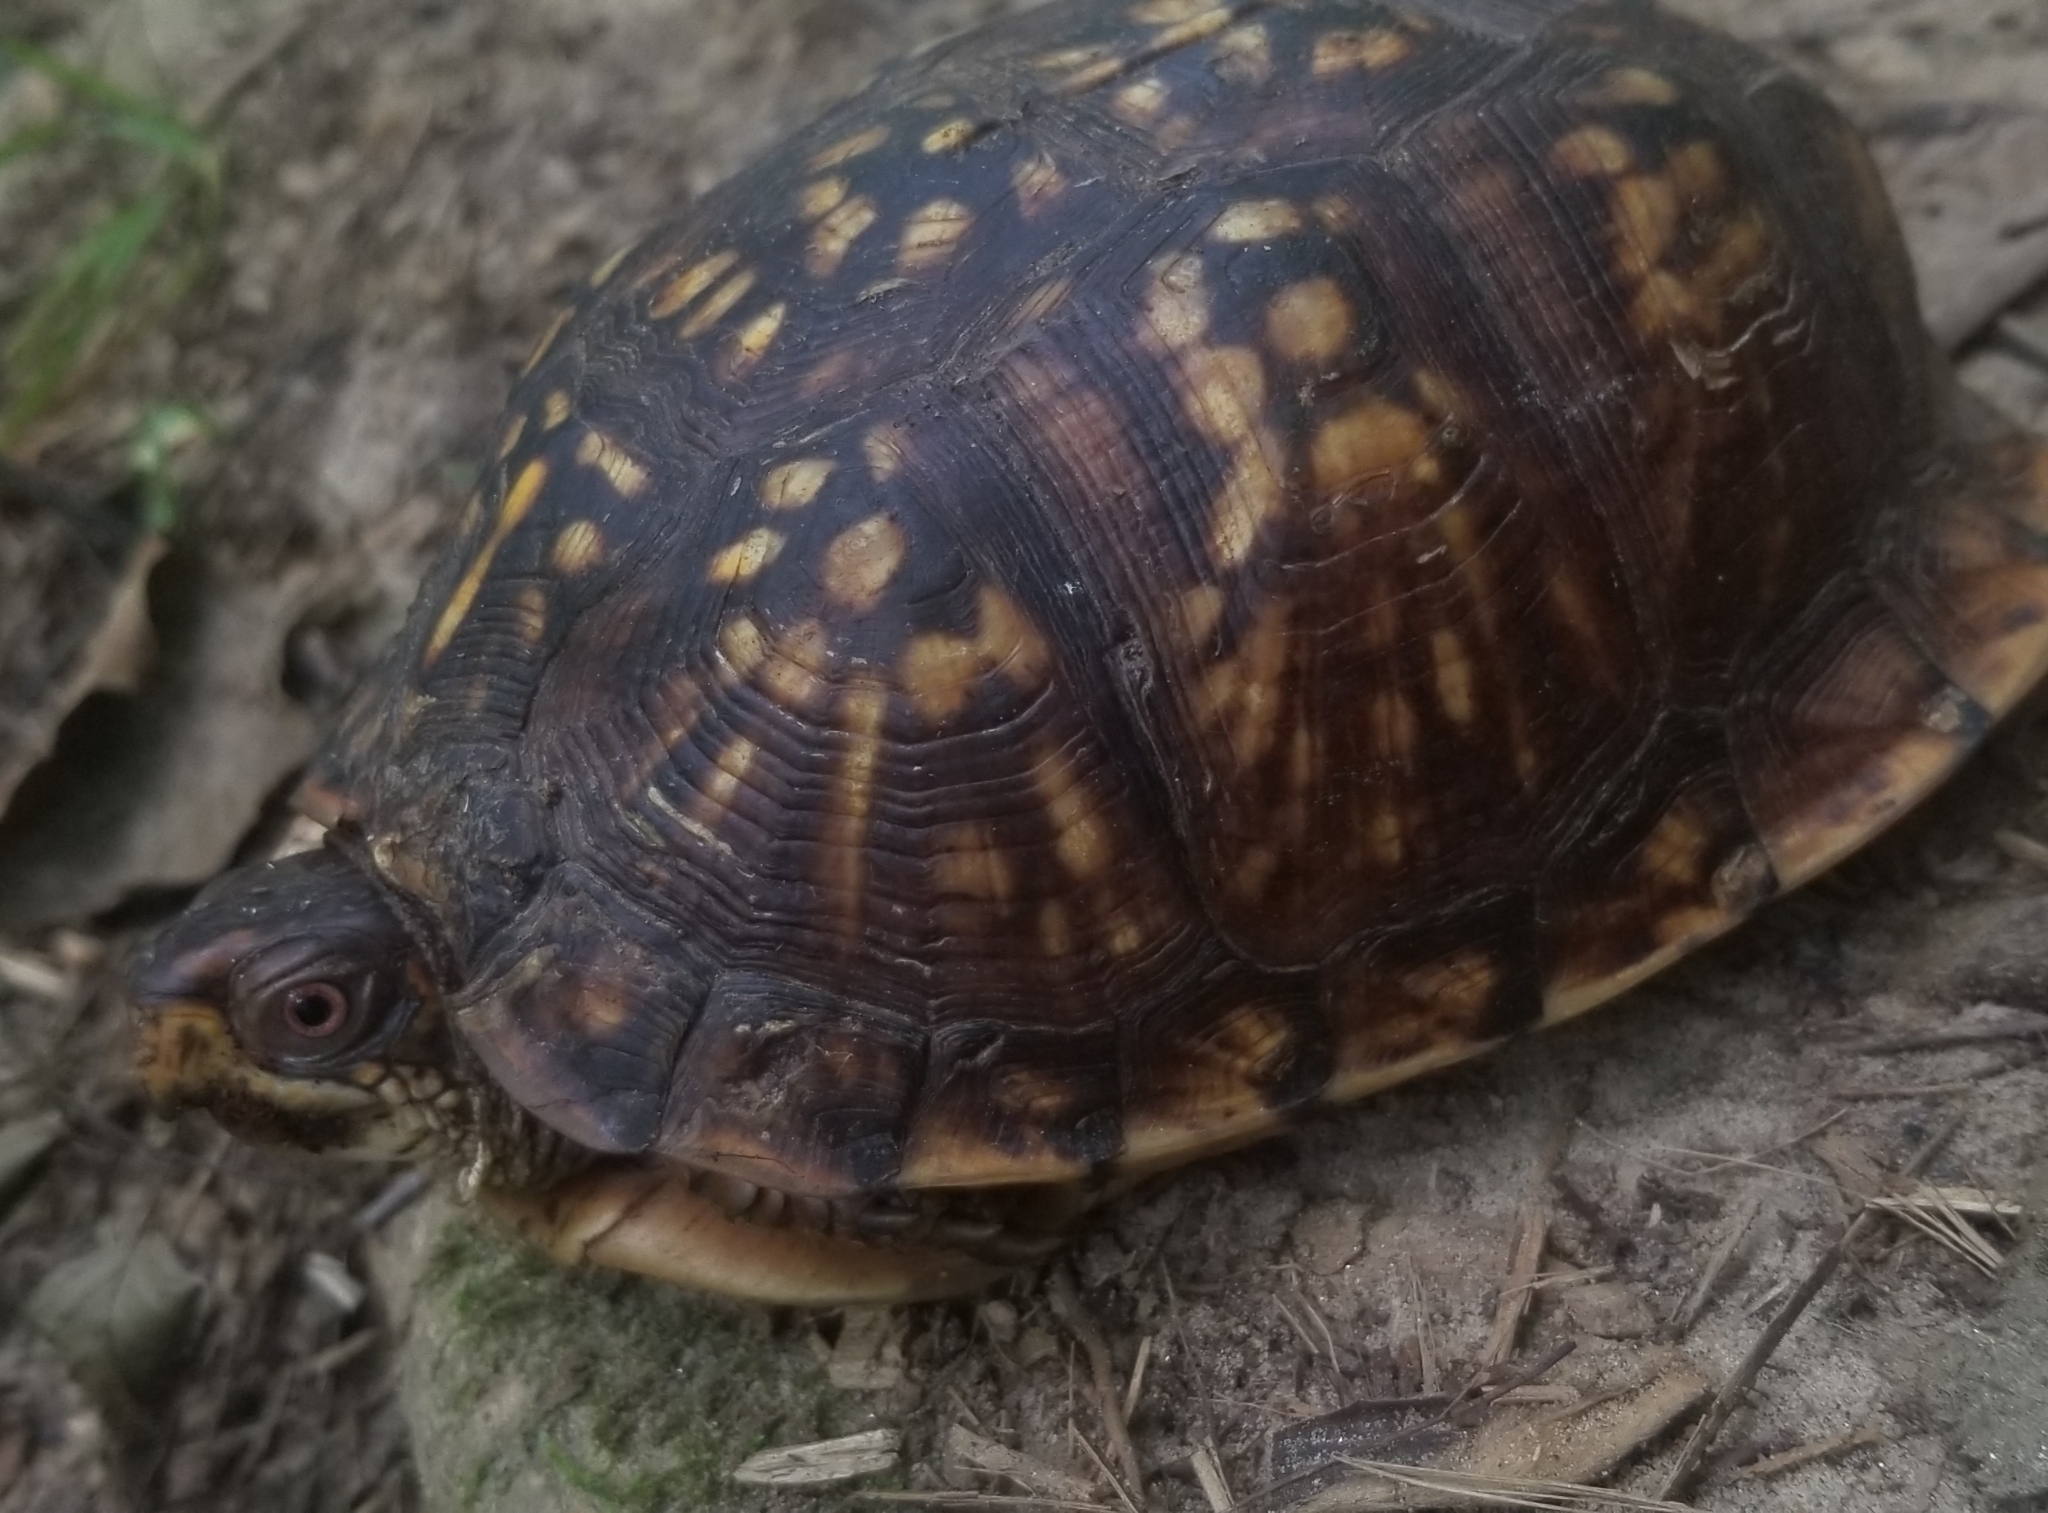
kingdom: Animalia
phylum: Chordata
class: Testudines
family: Emydidae
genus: Terrapene
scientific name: Terrapene carolina
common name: Common box turtle
